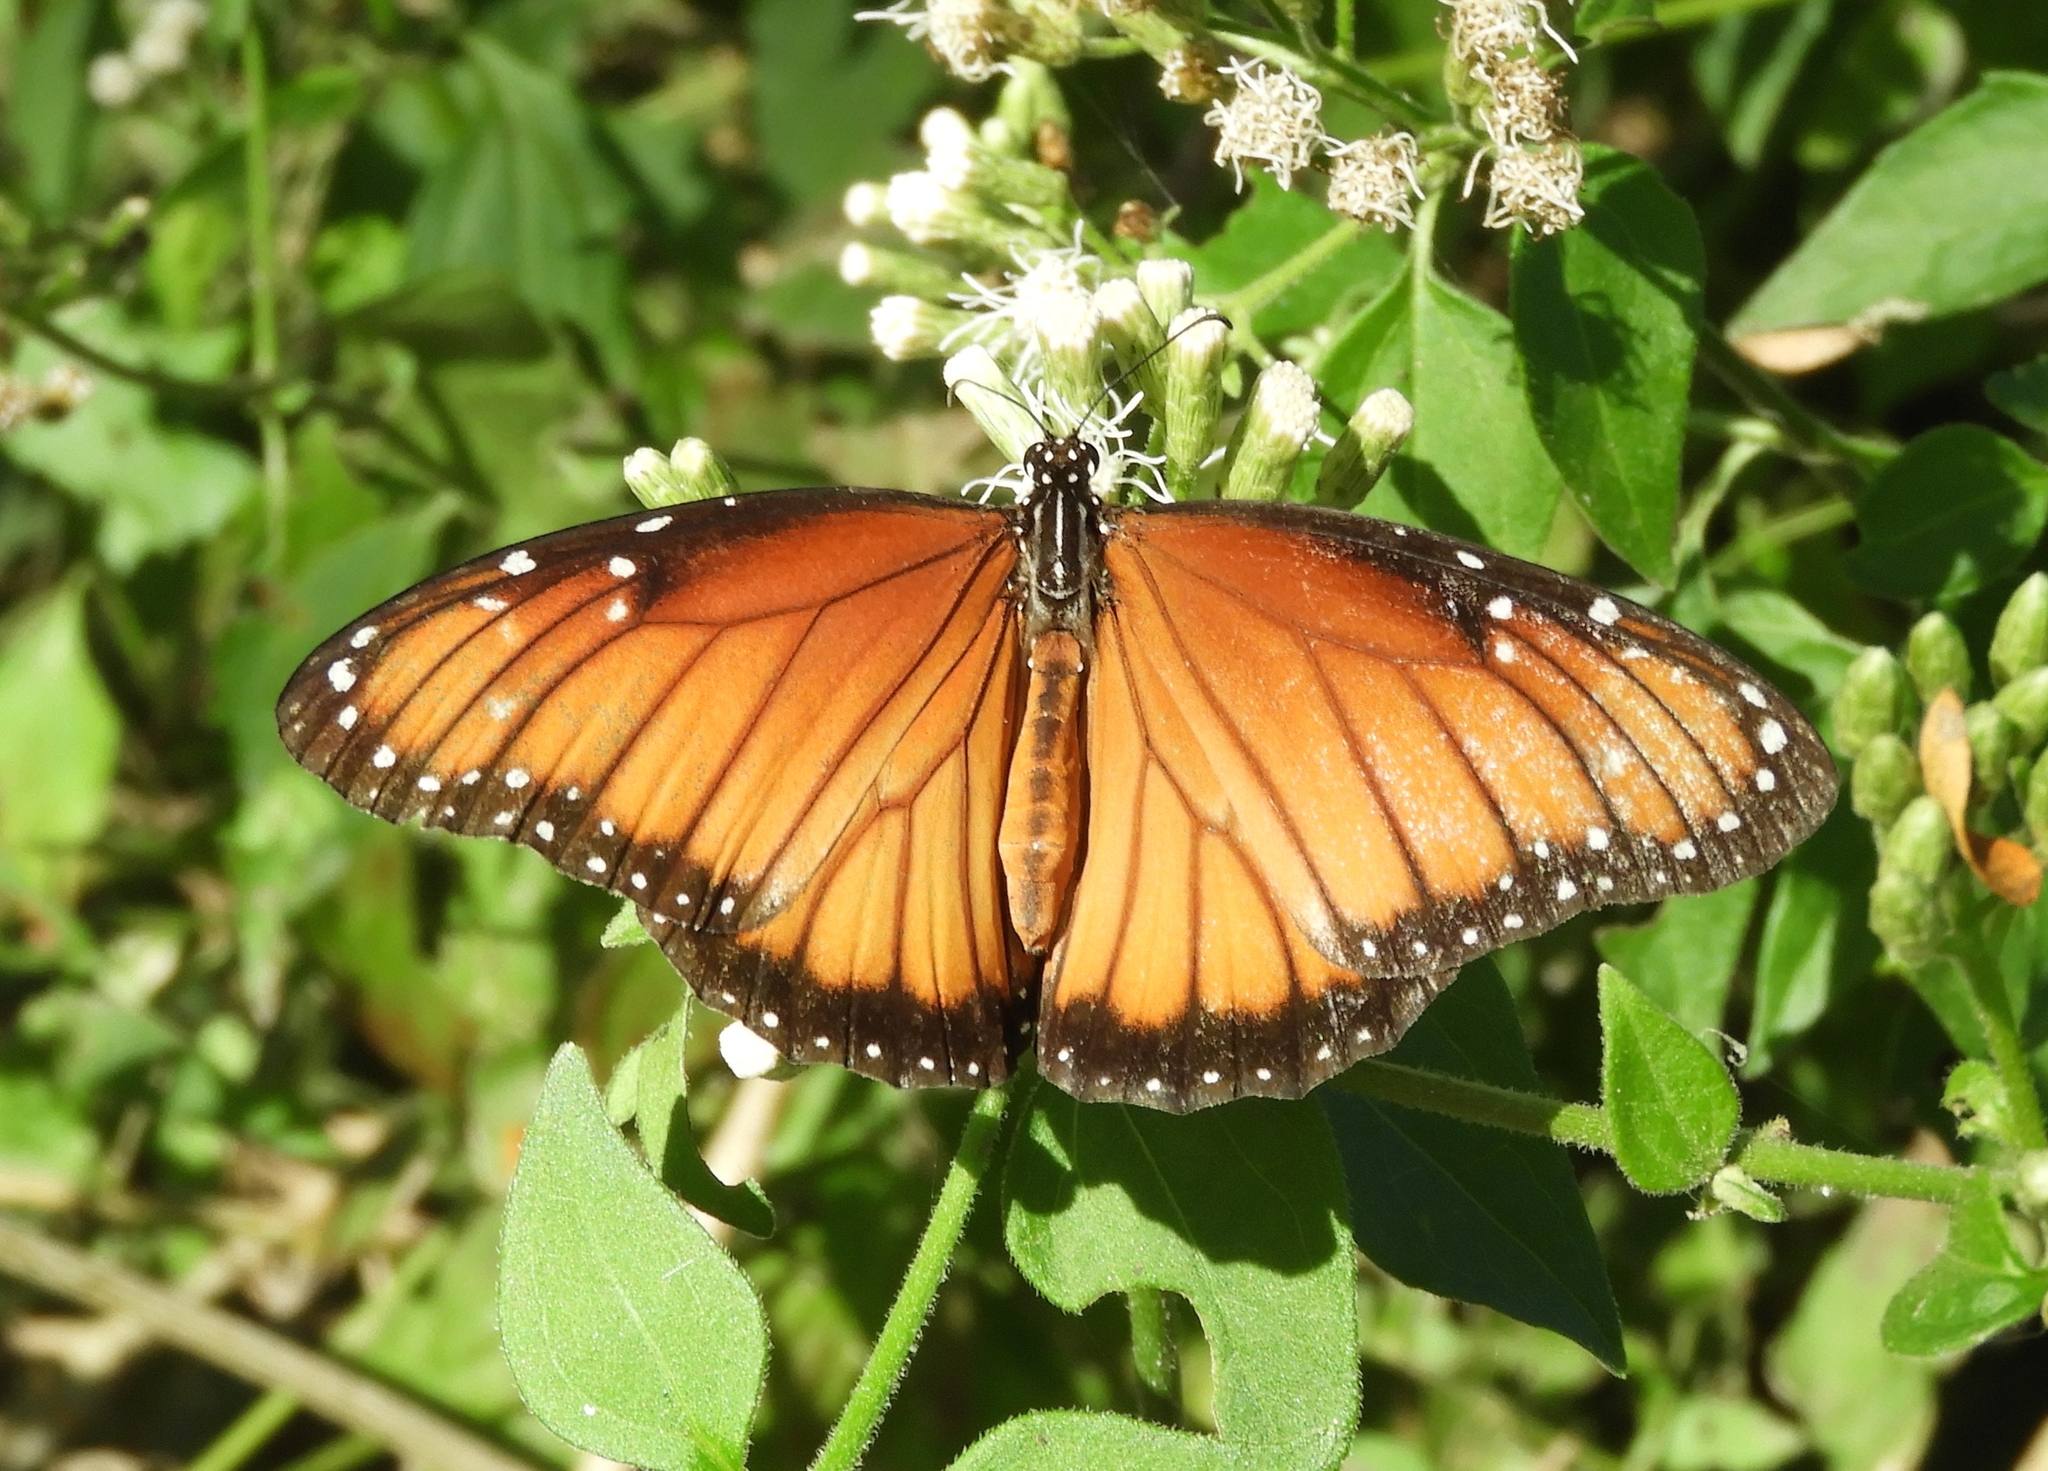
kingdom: Animalia
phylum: Arthropoda
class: Insecta
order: Lepidoptera
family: Nymphalidae
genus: Danaus
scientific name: Danaus eresimus
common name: Soldier
